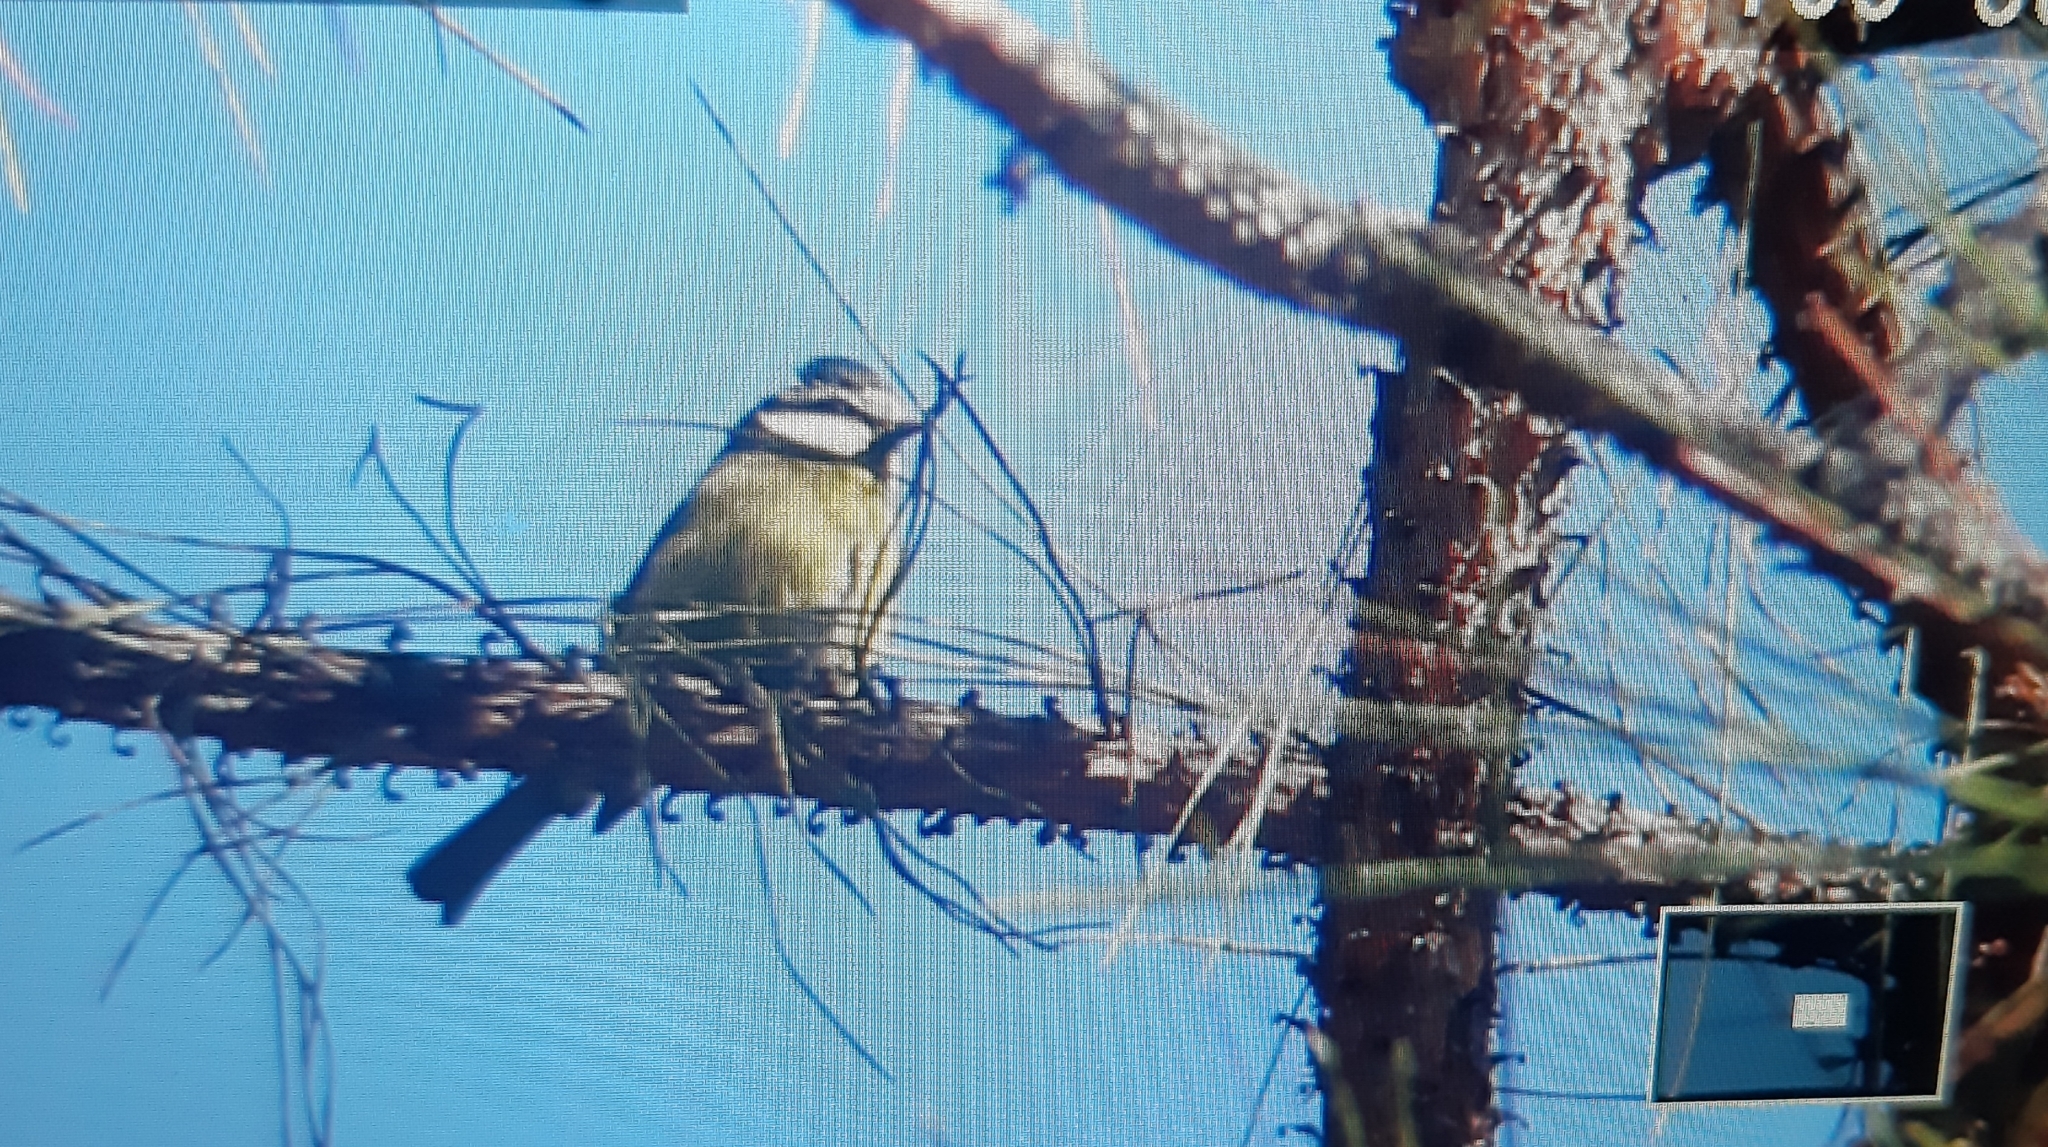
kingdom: Animalia
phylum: Chordata
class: Aves
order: Passeriformes
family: Paridae
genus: Cyanistes
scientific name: Cyanistes teneriffae
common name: African blue tit
